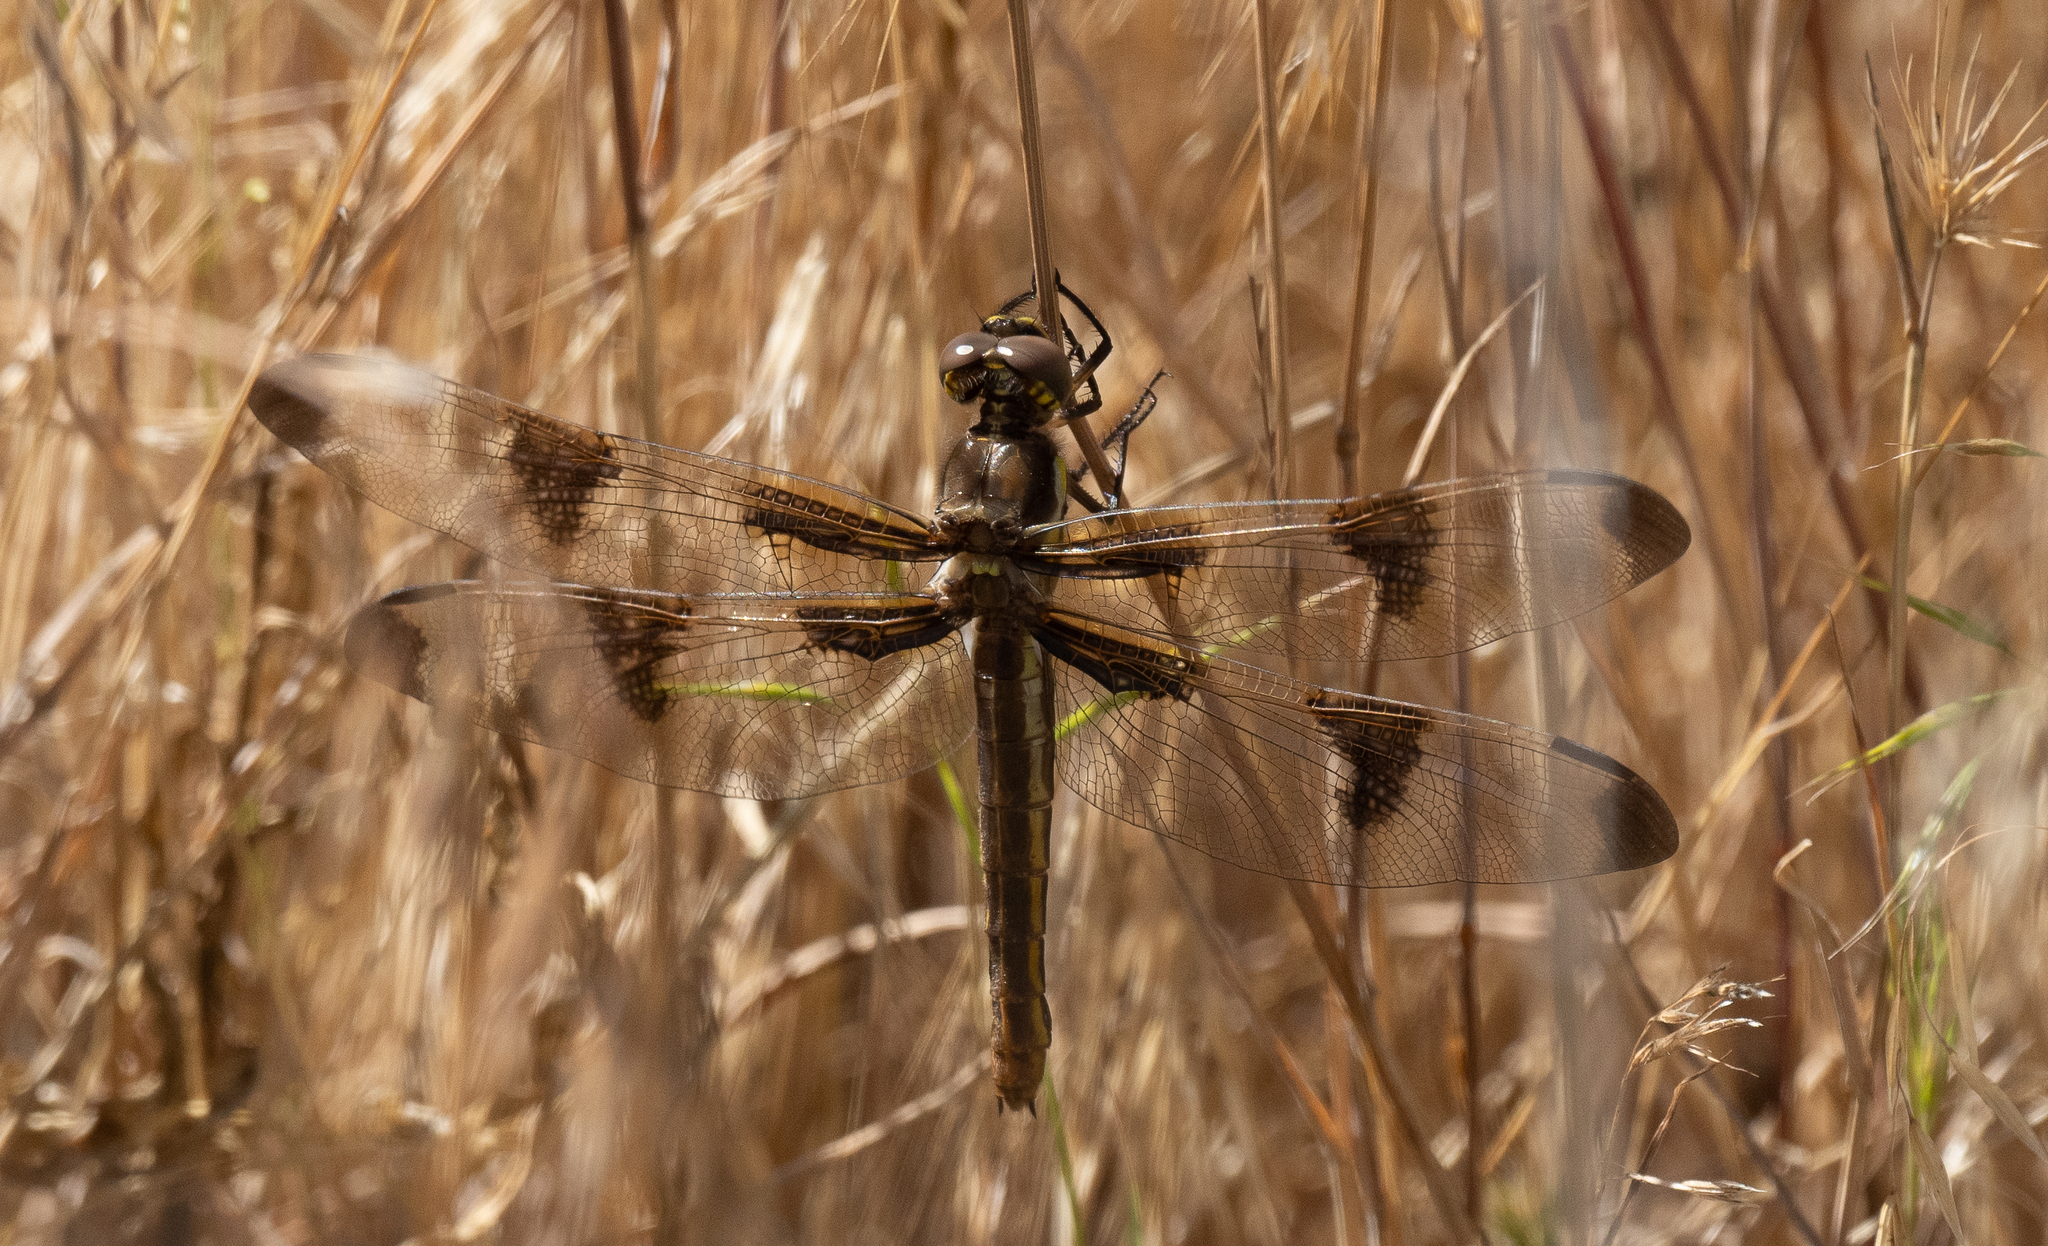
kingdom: Animalia
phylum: Arthropoda
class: Insecta
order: Odonata
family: Libellulidae
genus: Libellula
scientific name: Libellula pulchella
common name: Twelve-spotted skimmer
